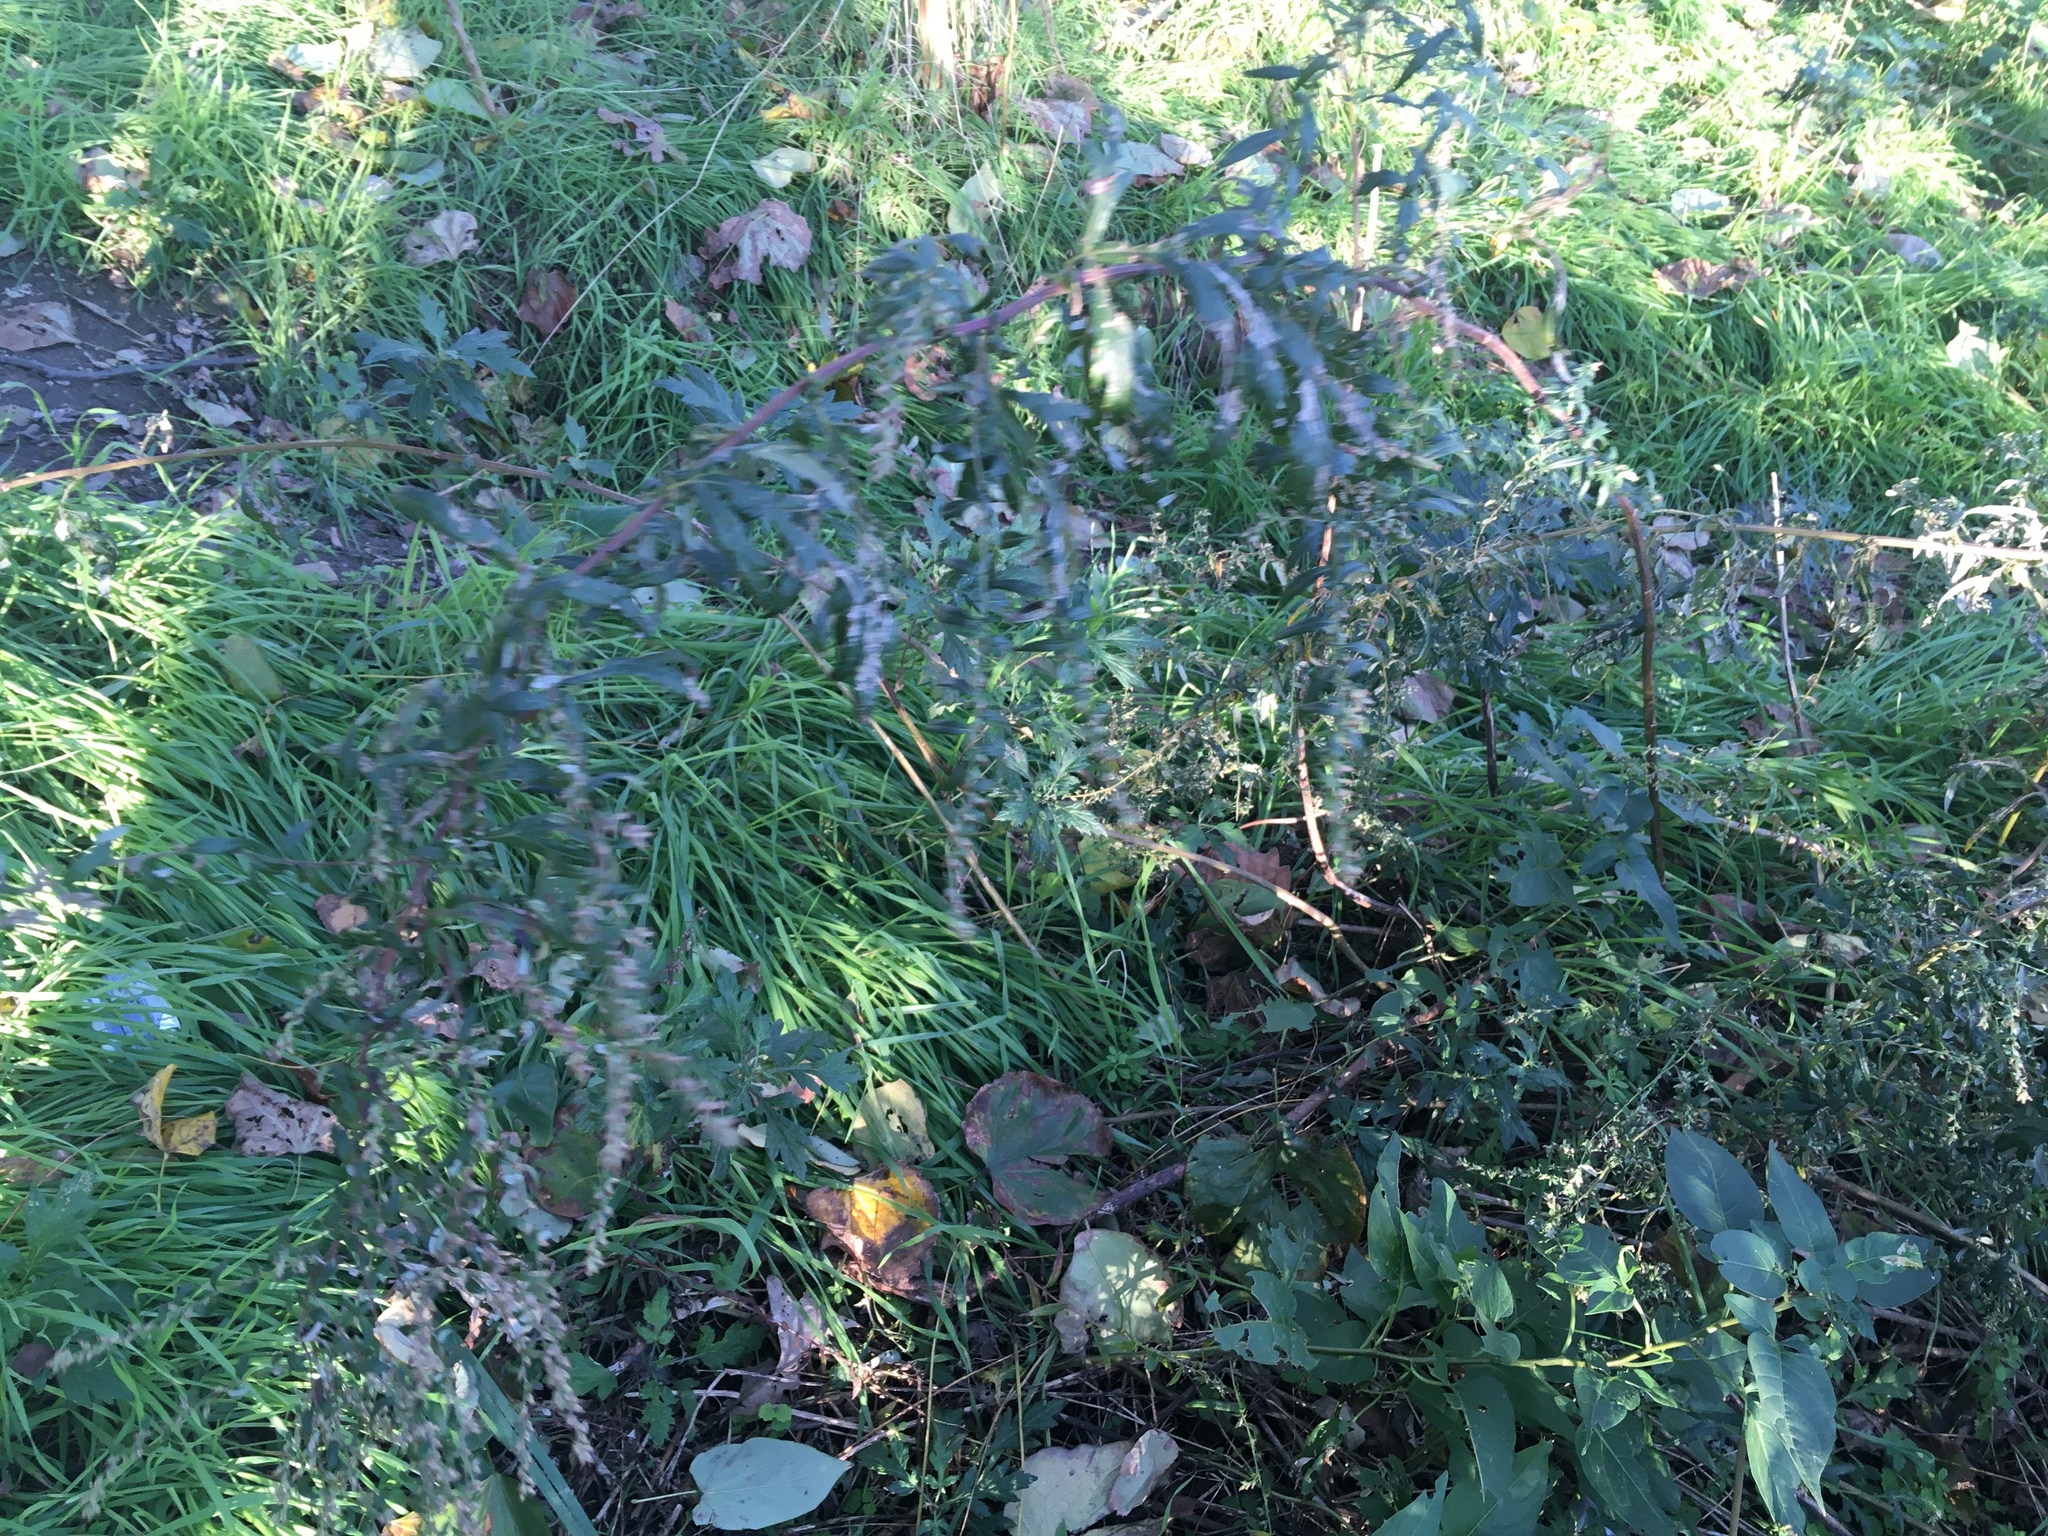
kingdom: Plantae
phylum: Tracheophyta
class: Magnoliopsida
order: Asterales
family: Asteraceae
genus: Artemisia
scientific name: Artemisia vulgaris
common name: Mugwort
